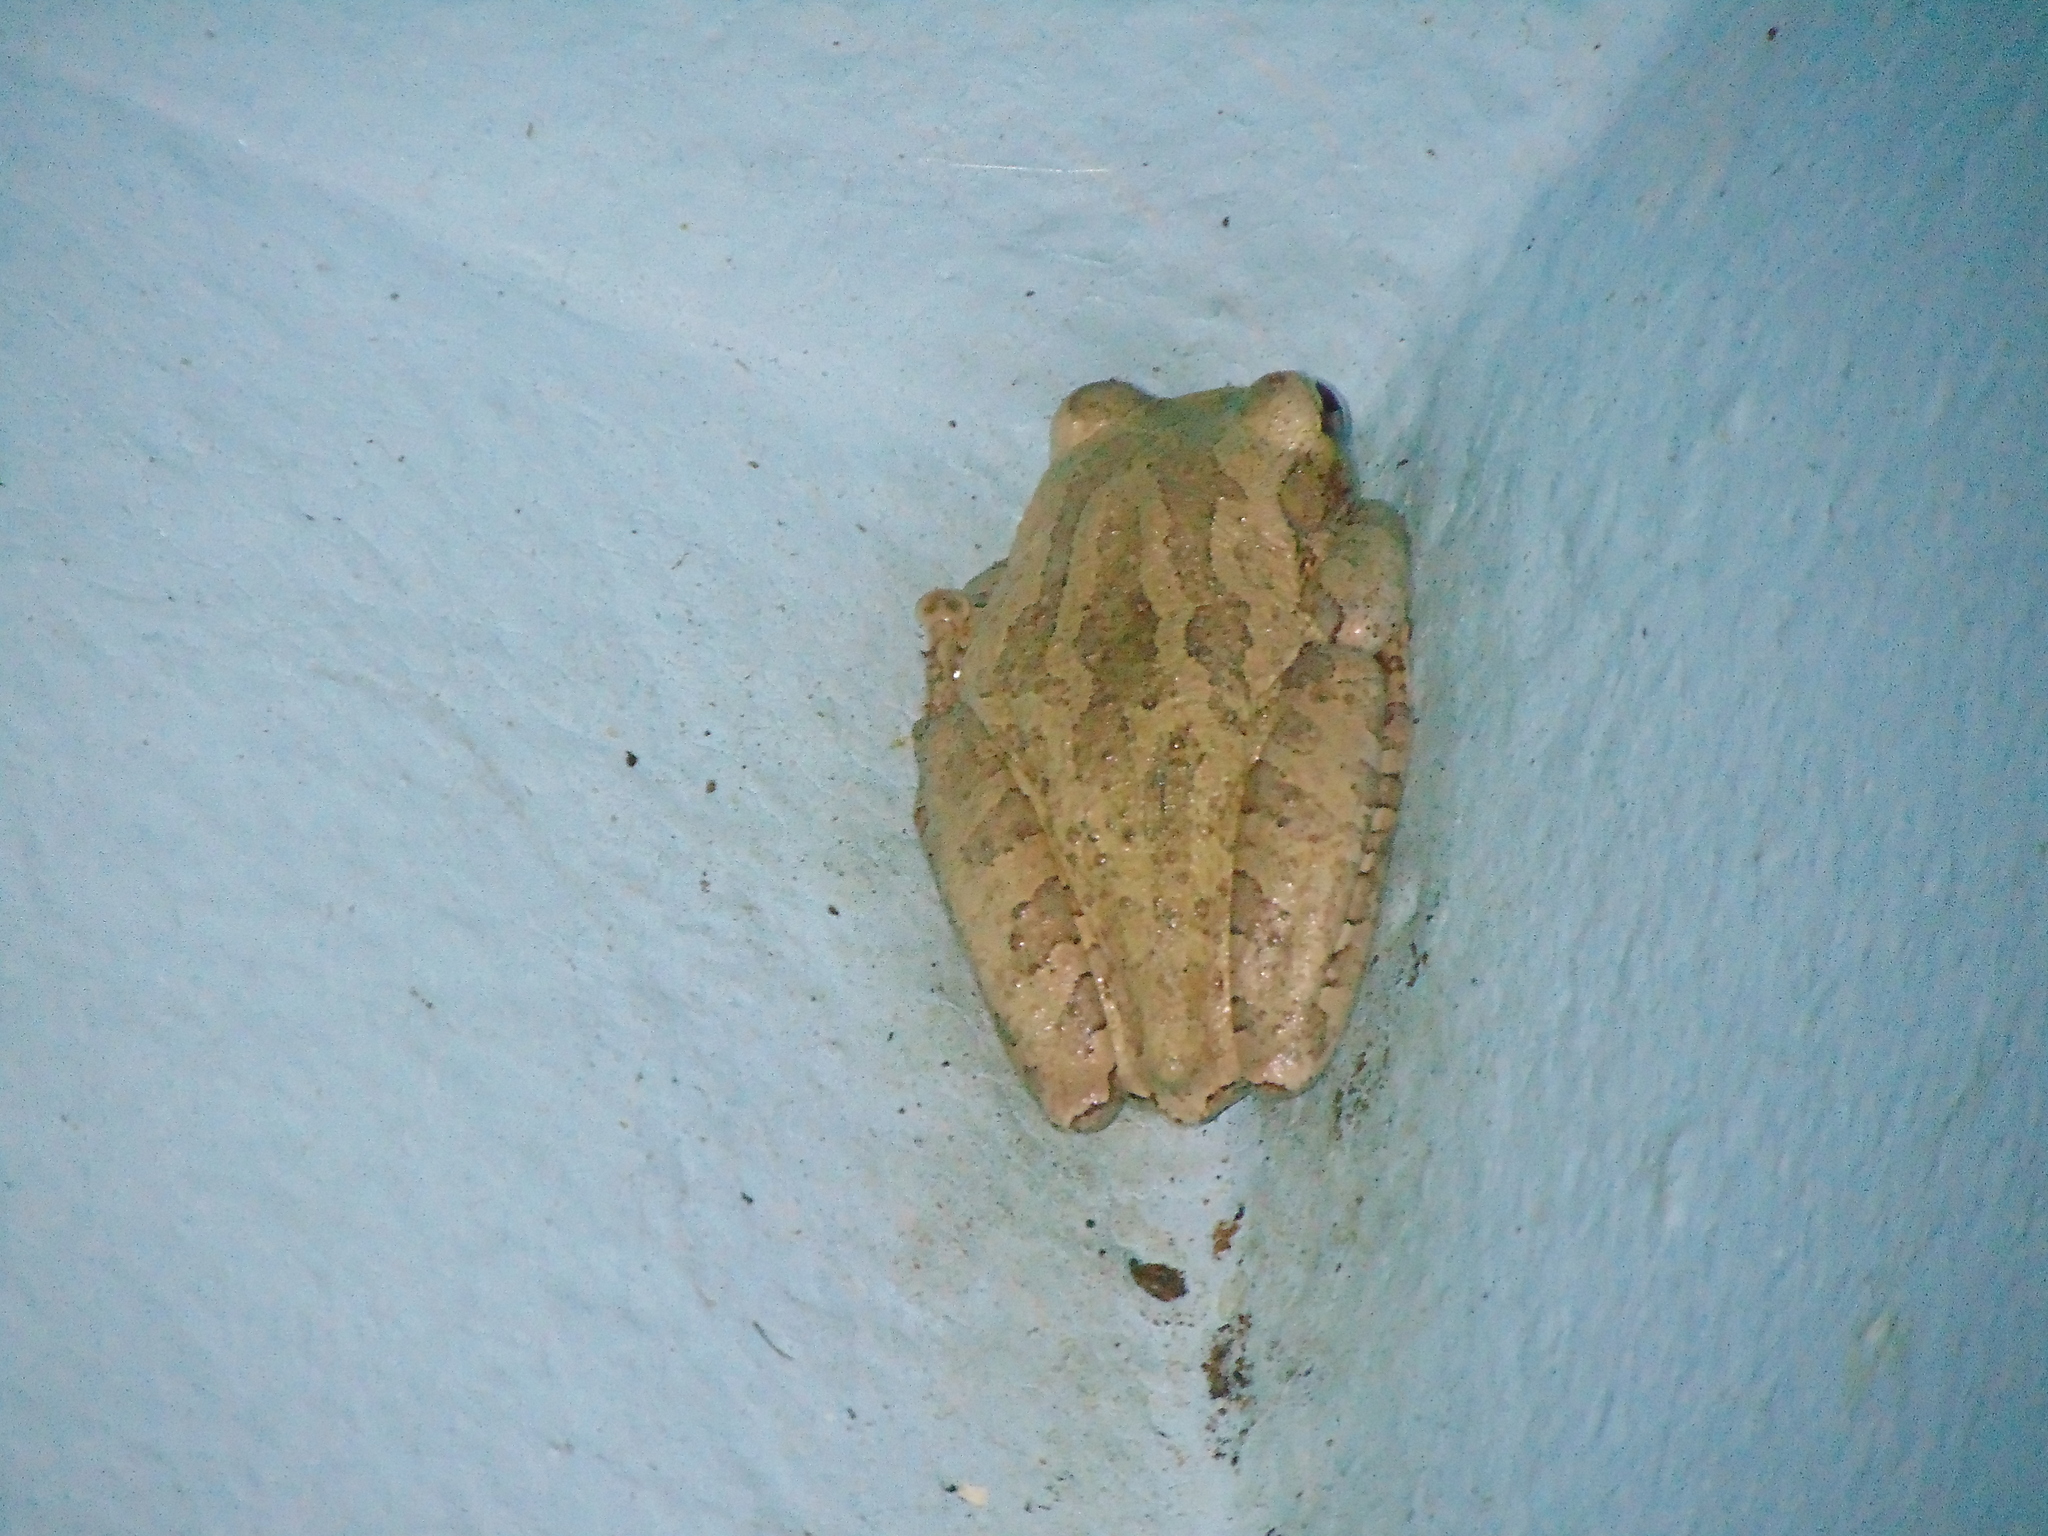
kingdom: Animalia
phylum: Chordata
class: Amphibia
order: Anura
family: Hylidae
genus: Osteopilus
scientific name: Osteopilus septentrionalis
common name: Cuban treefrog
